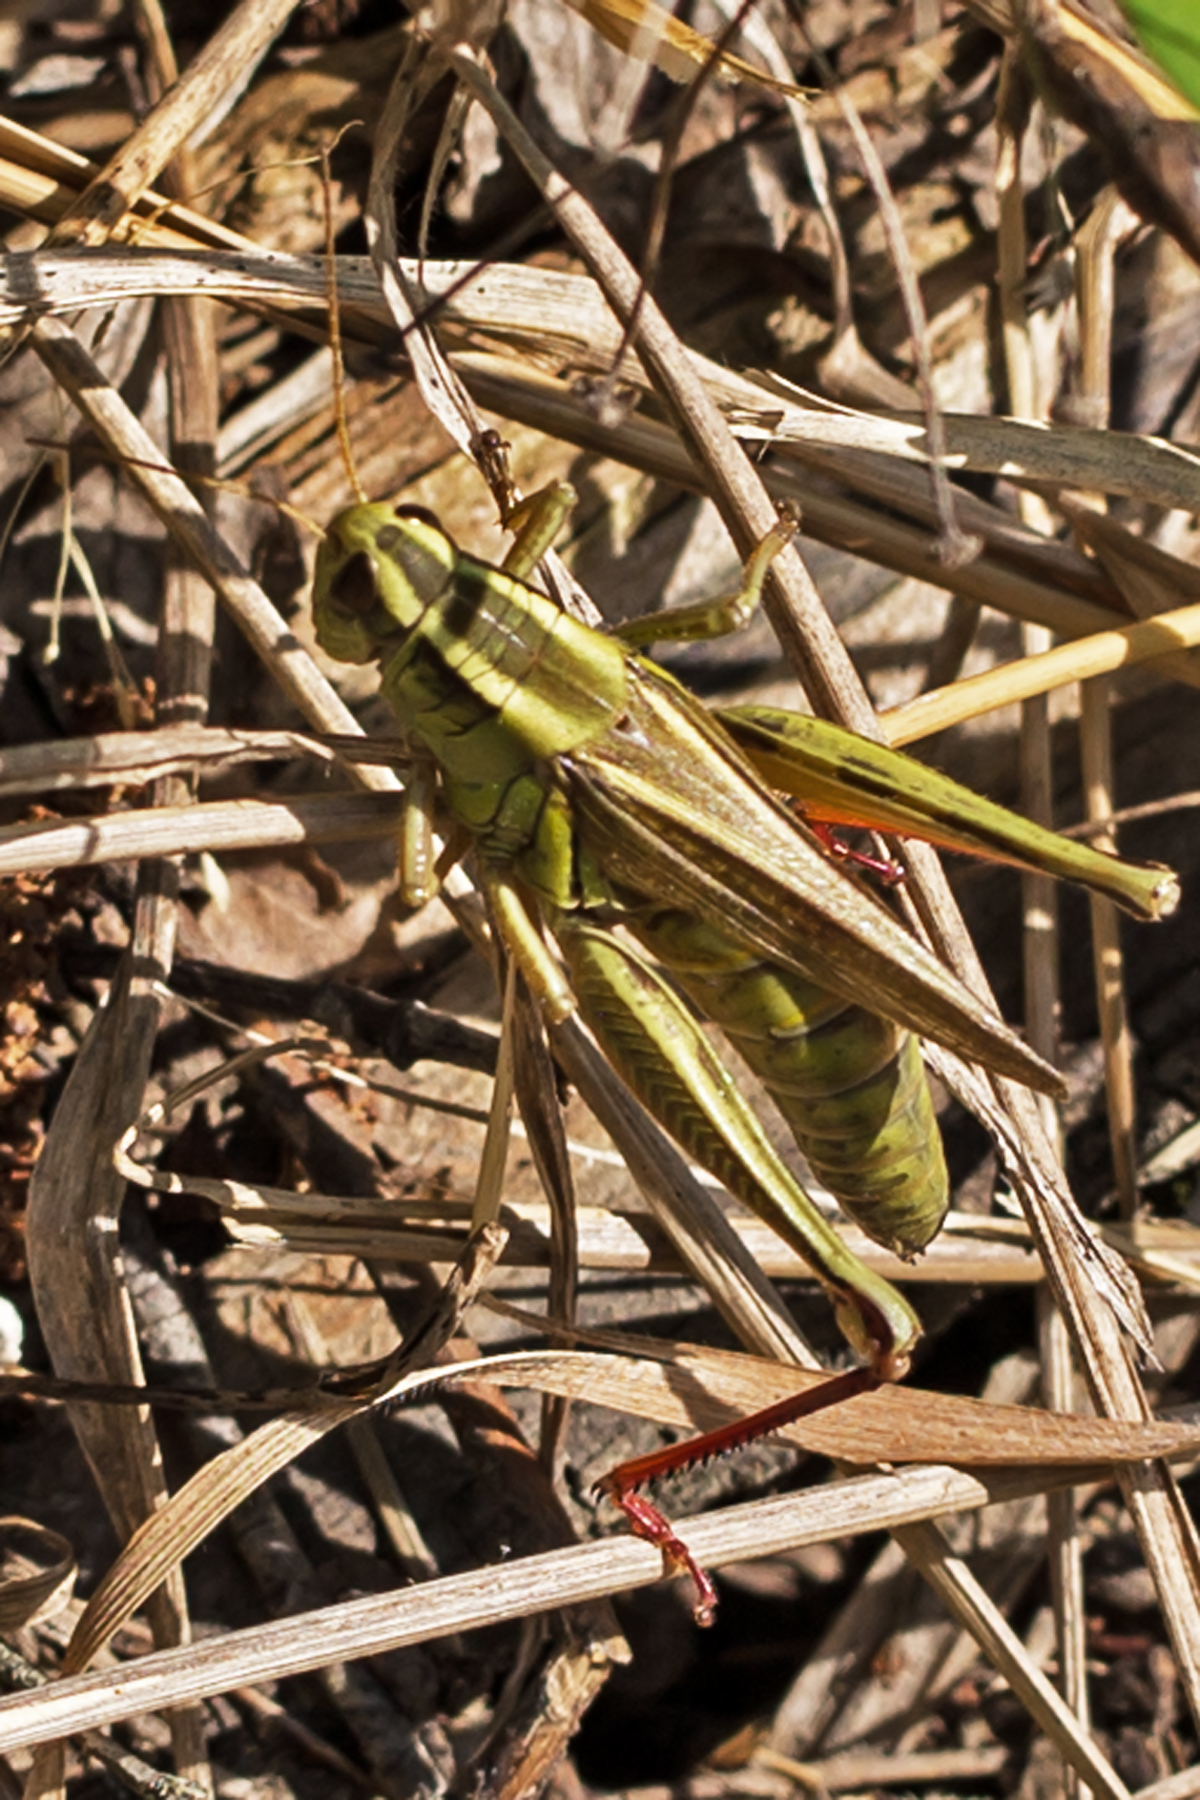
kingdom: Animalia
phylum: Arthropoda
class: Insecta
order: Orthoptera
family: Acrididae
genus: Melanoplus
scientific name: Melanoplus bivittatus
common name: Two-striped grasshopper
